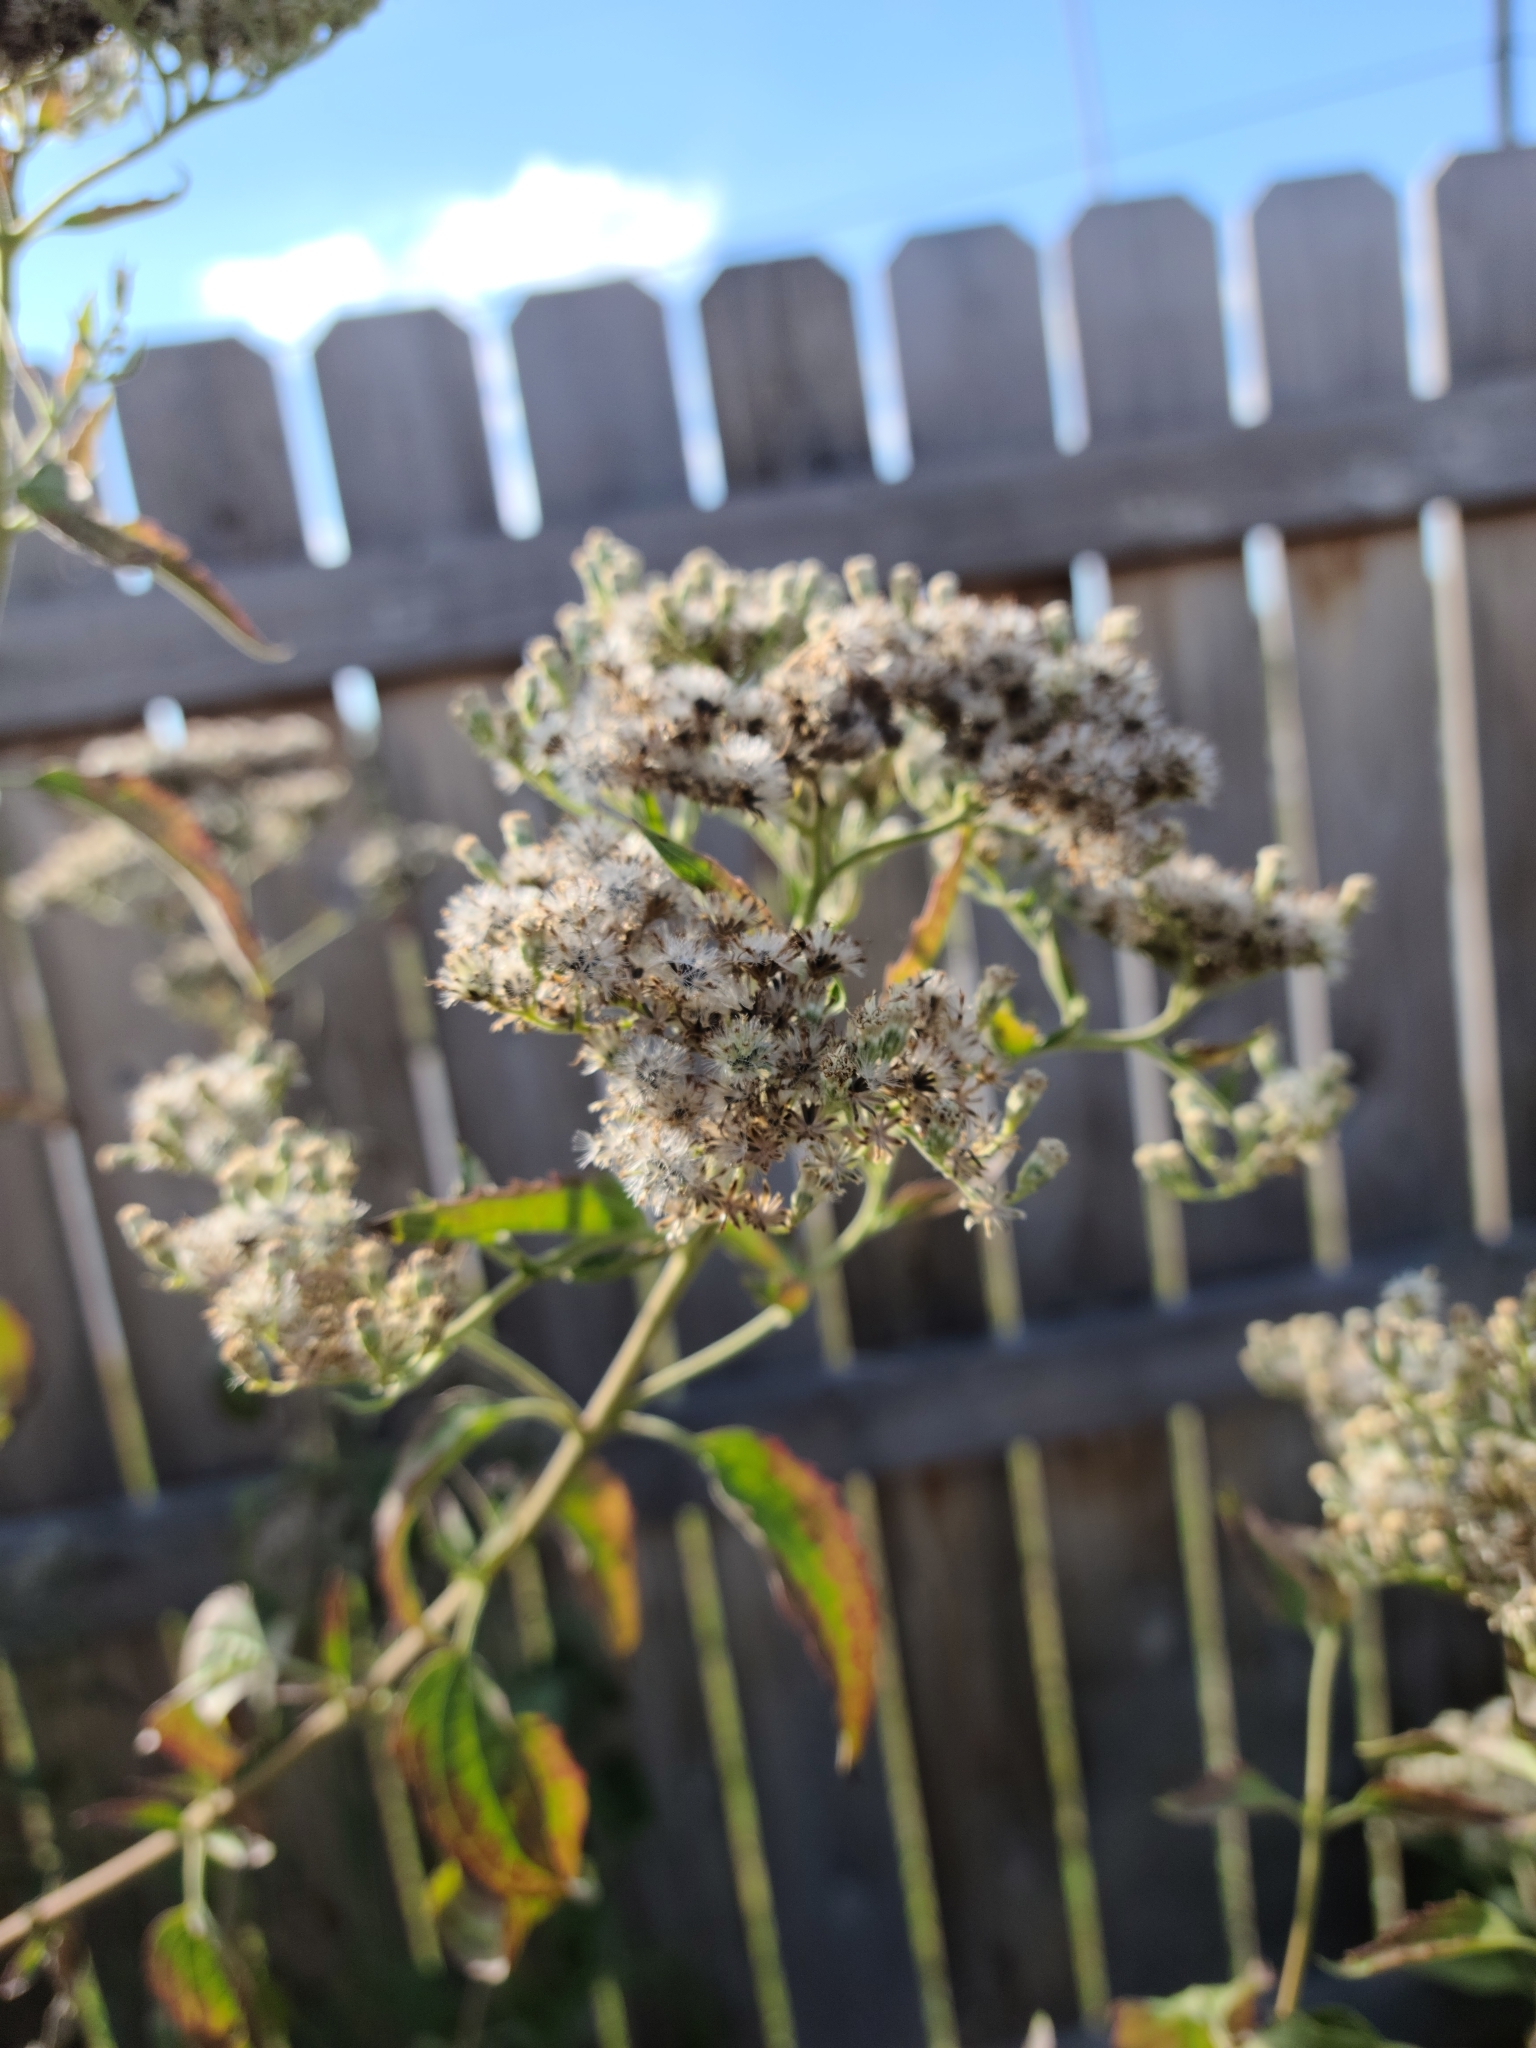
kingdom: Plantae
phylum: Tracheophyta
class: Magnoliopsida
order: Asterales
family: Asteraceae
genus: Eupatorium
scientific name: Eupatorium serotinum
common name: Late boneset
